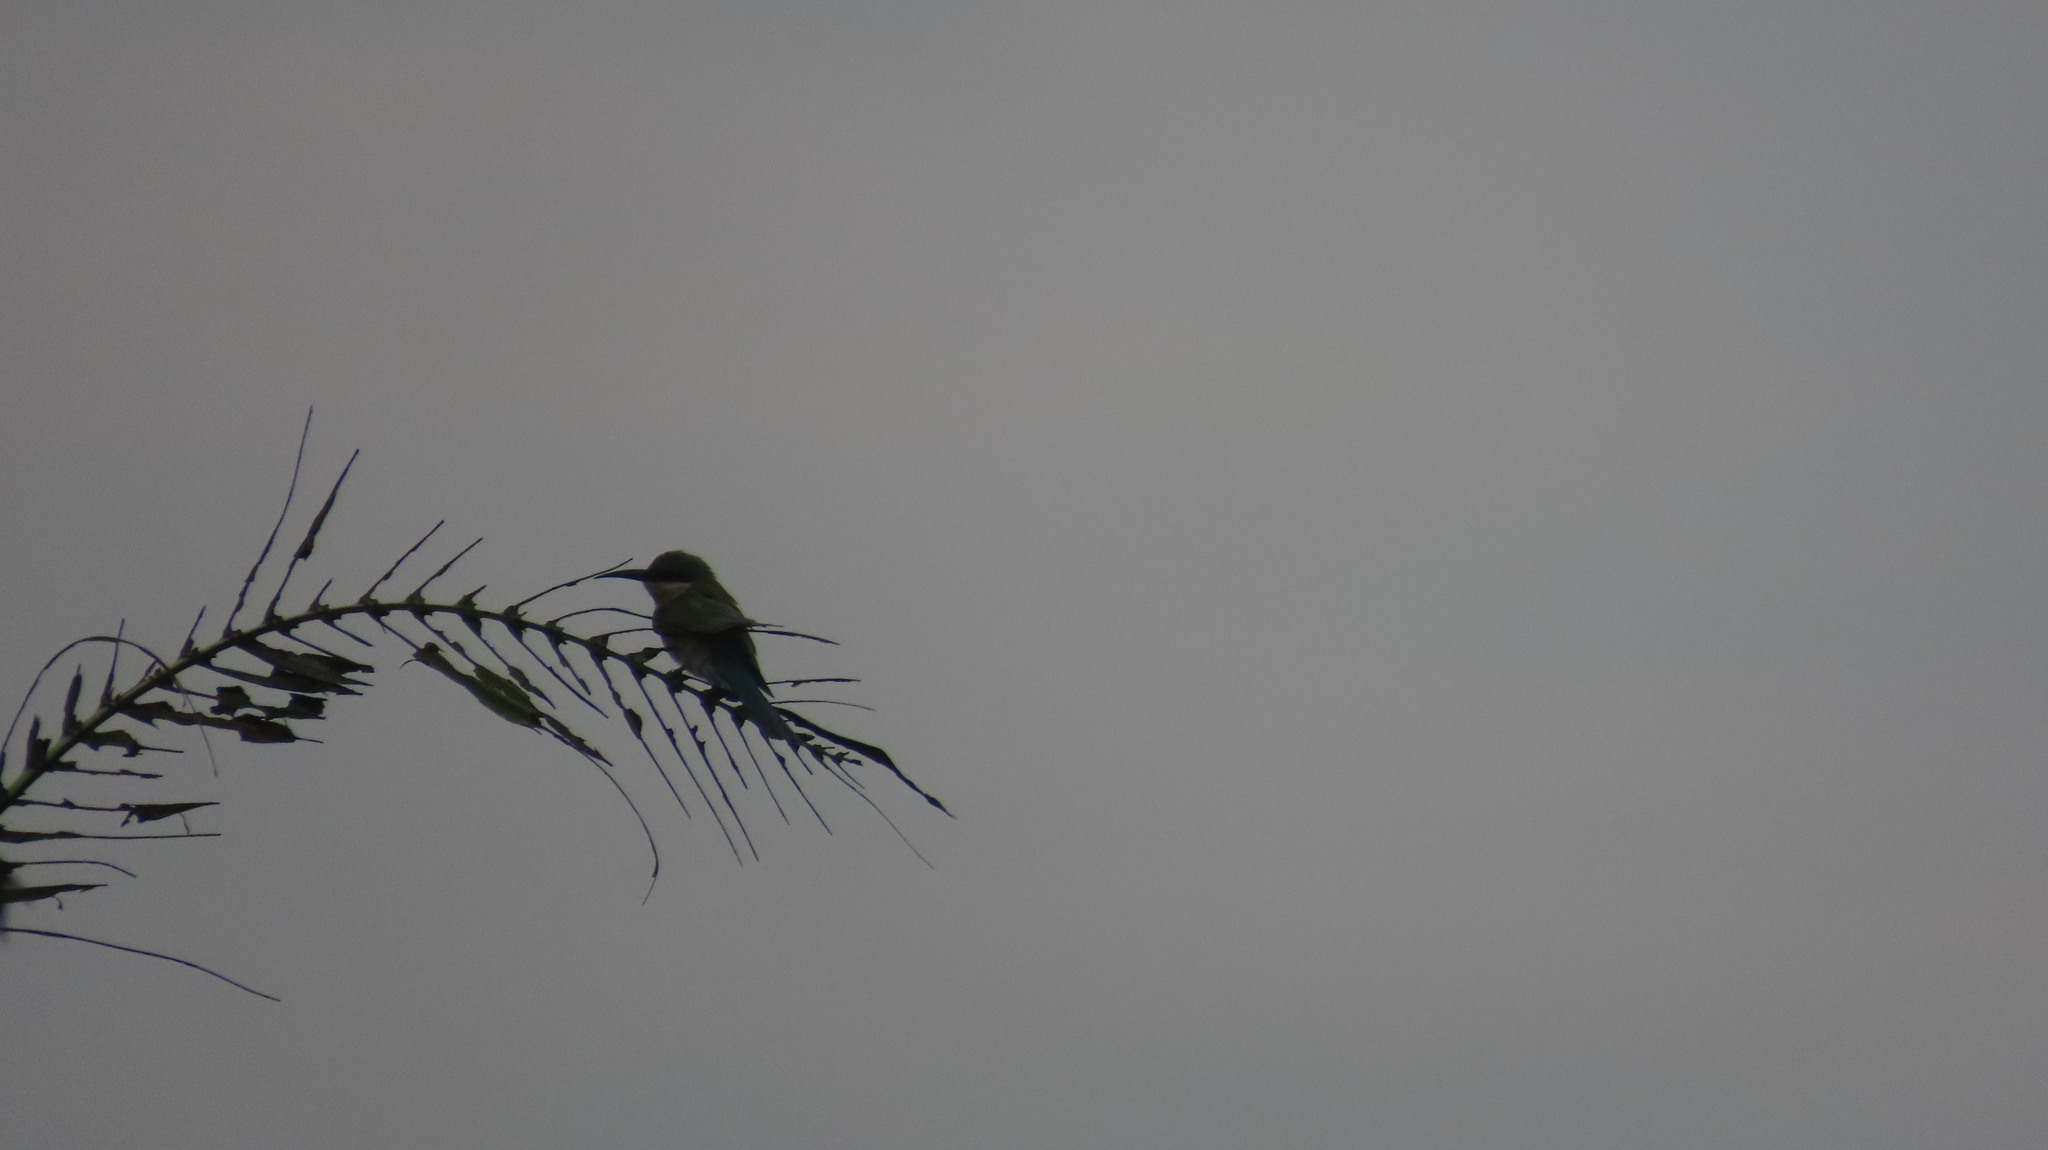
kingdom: Animalia
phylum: Chordata
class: Aves
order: Coraciiformes
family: Meropidae
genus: Merops
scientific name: Merops philippinus
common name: Blue-tailed bee-eater
